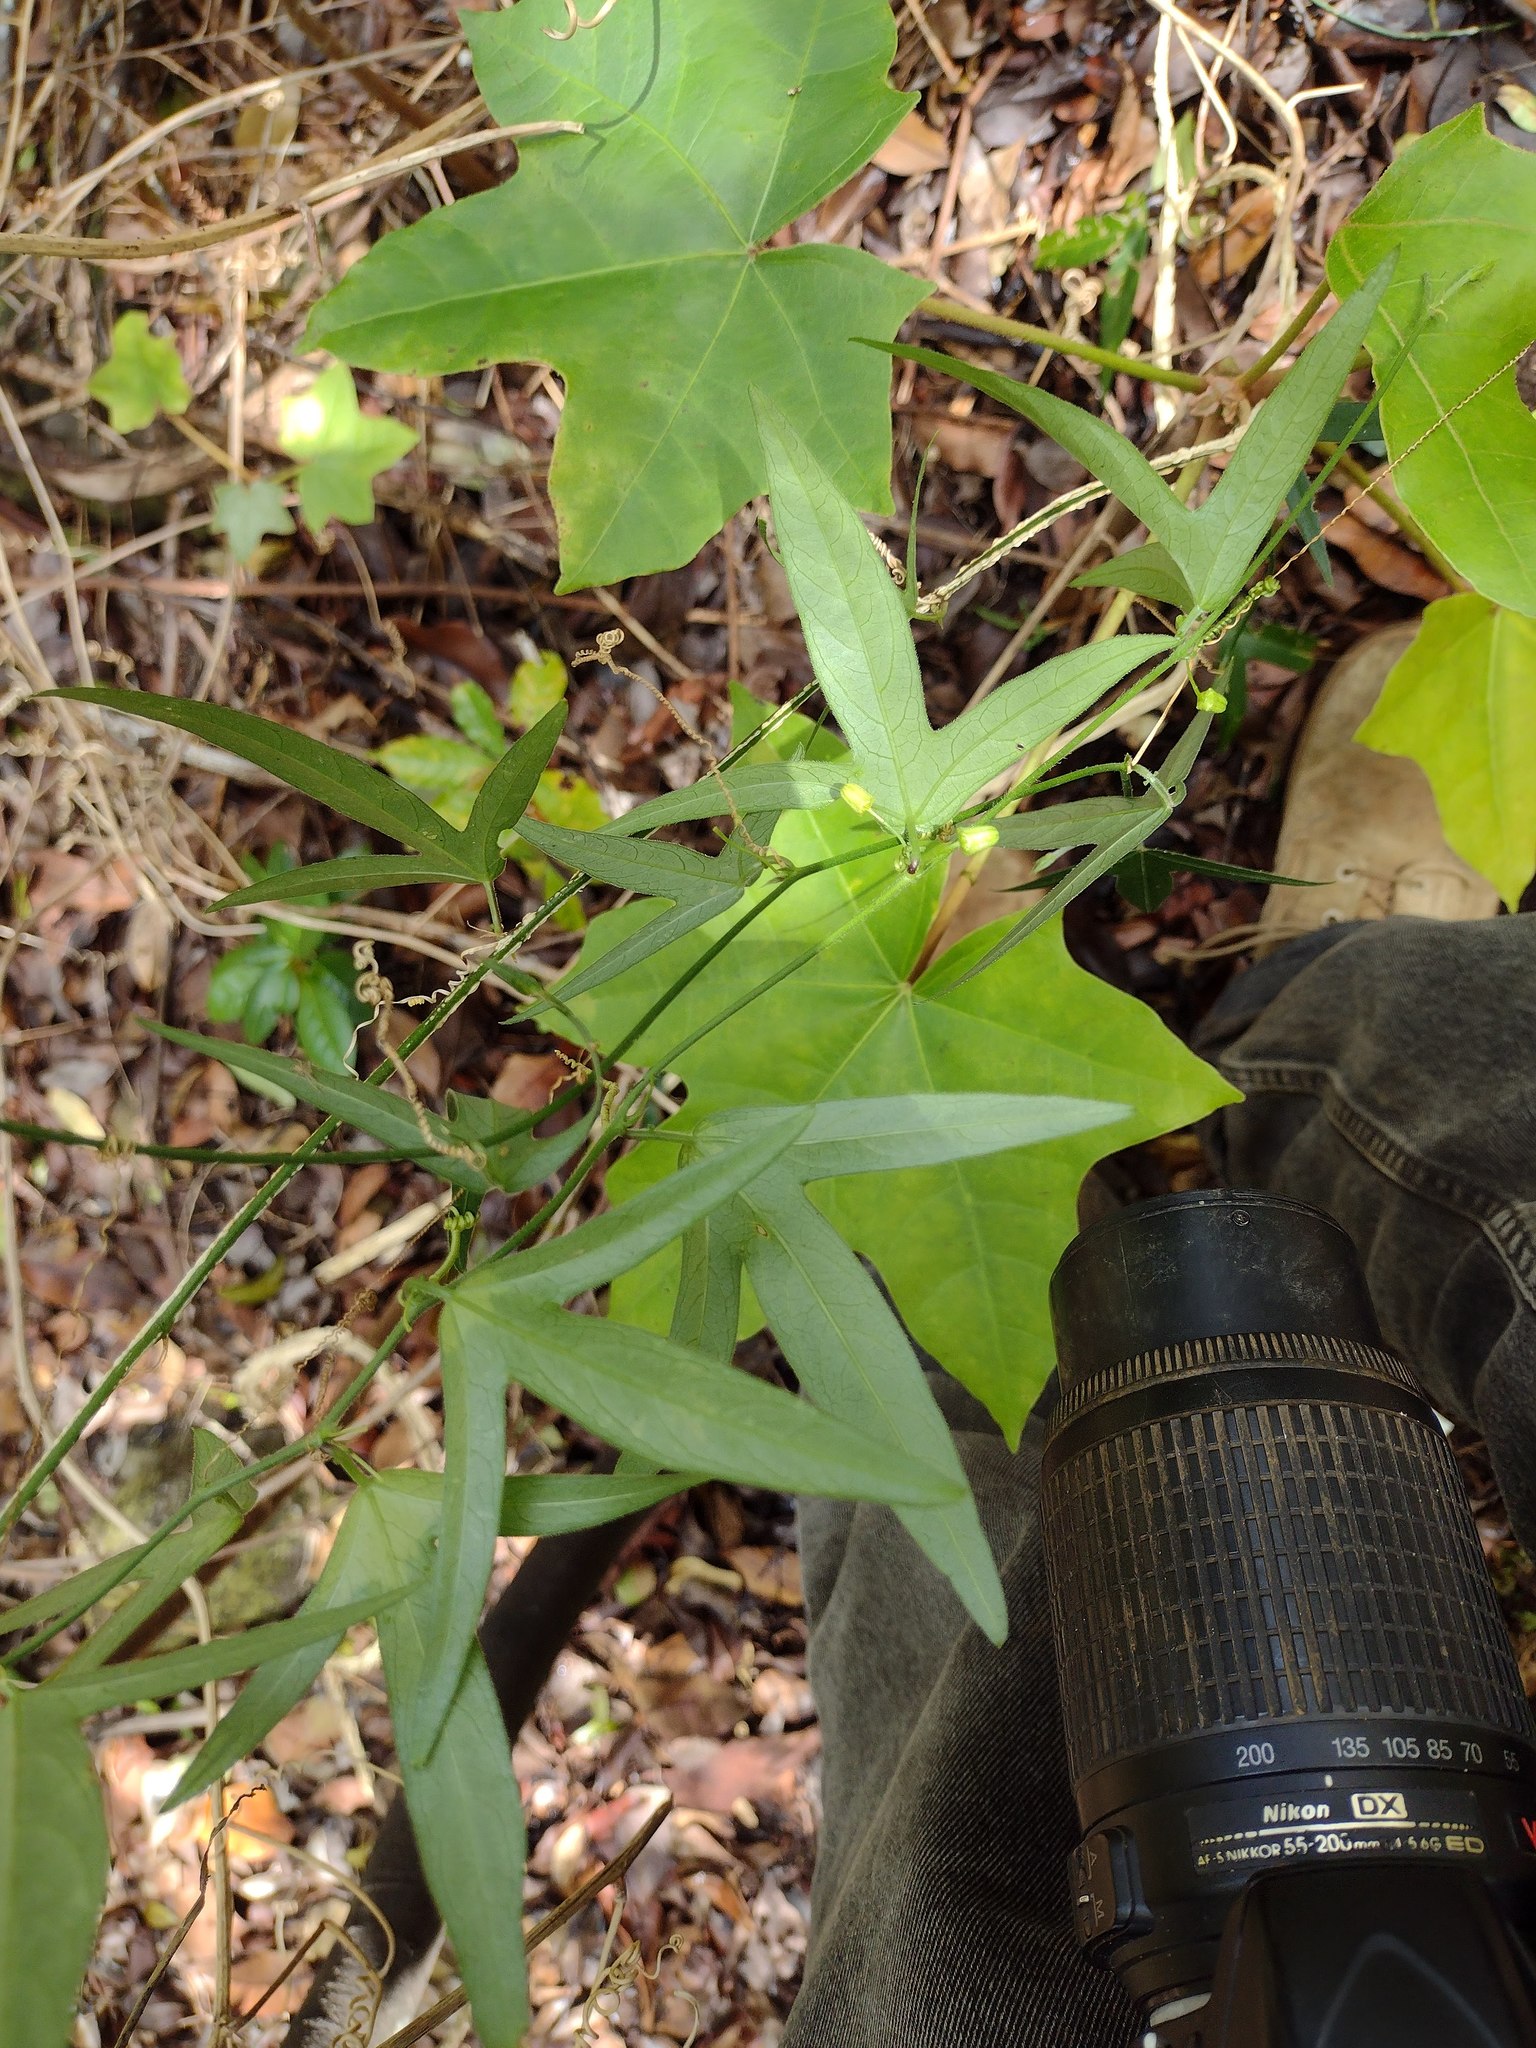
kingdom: Plantae
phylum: Tracheophyta
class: Magnoliopsida
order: Malpighiales
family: Passifloraceae
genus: Passiflora
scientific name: Passiflora suberosa
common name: Wild passionfruit
